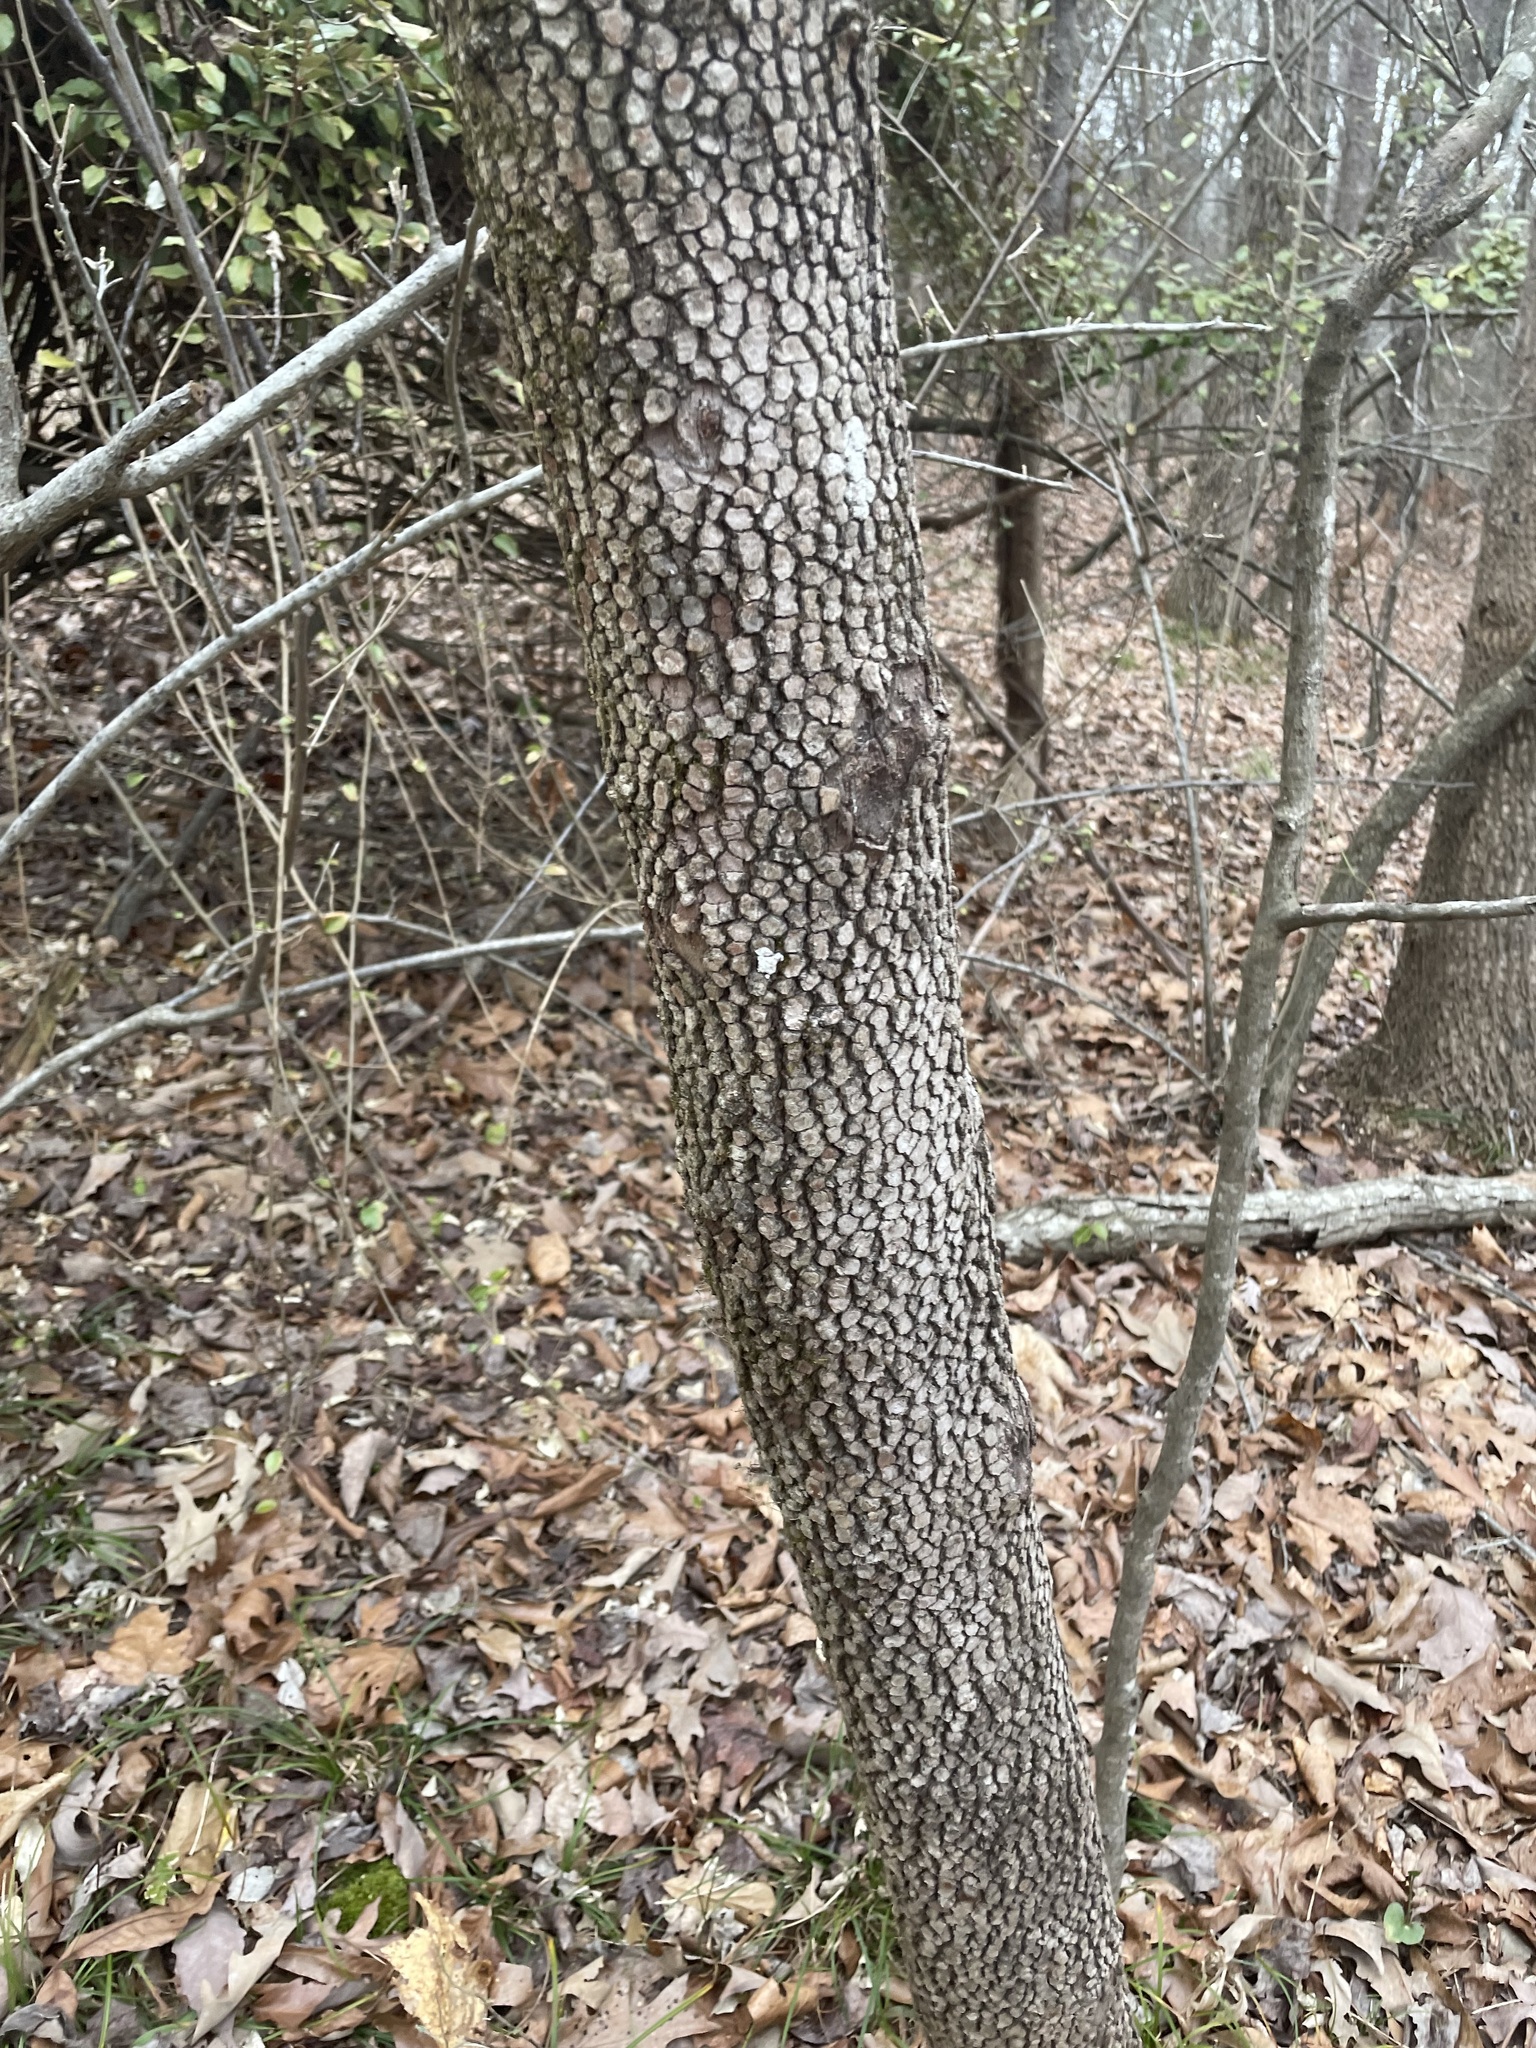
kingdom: Plantae
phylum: Tracheophyta
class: Magnoliopsida
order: Cornales
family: Cornaceae
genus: Cornus
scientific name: Cornus florida
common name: Flowering dogwood
